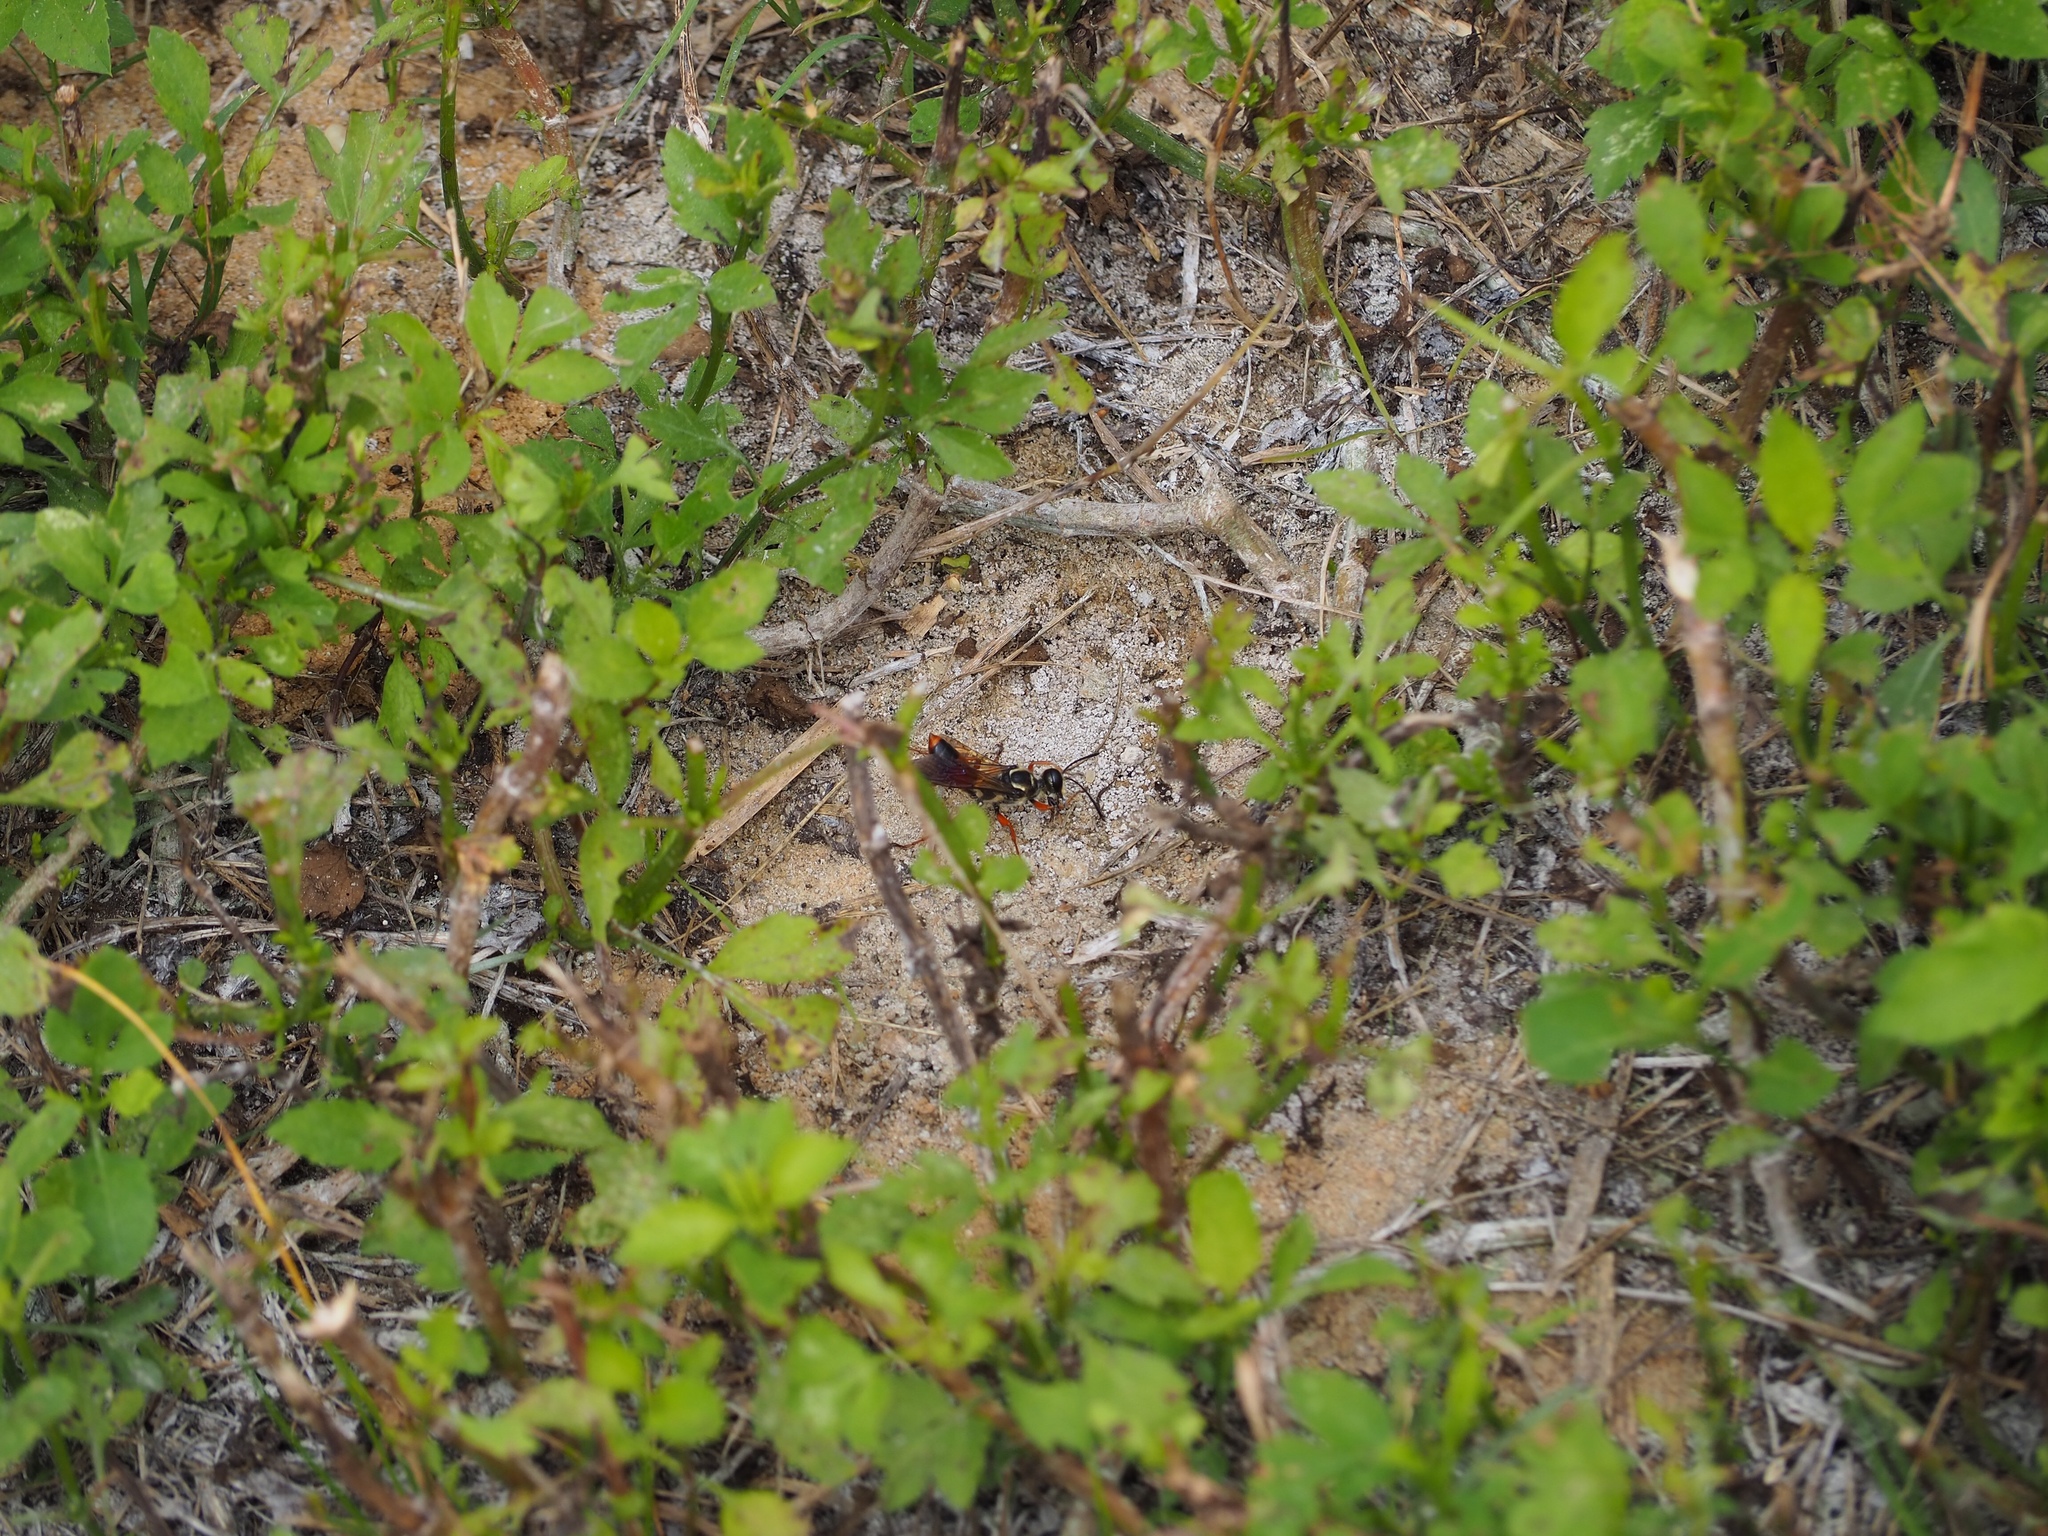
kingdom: Animalia
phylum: Arthropoda
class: Insecta
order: Hymenoptera
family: Sphecidae
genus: Sphex
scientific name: Sphex dorsalis
